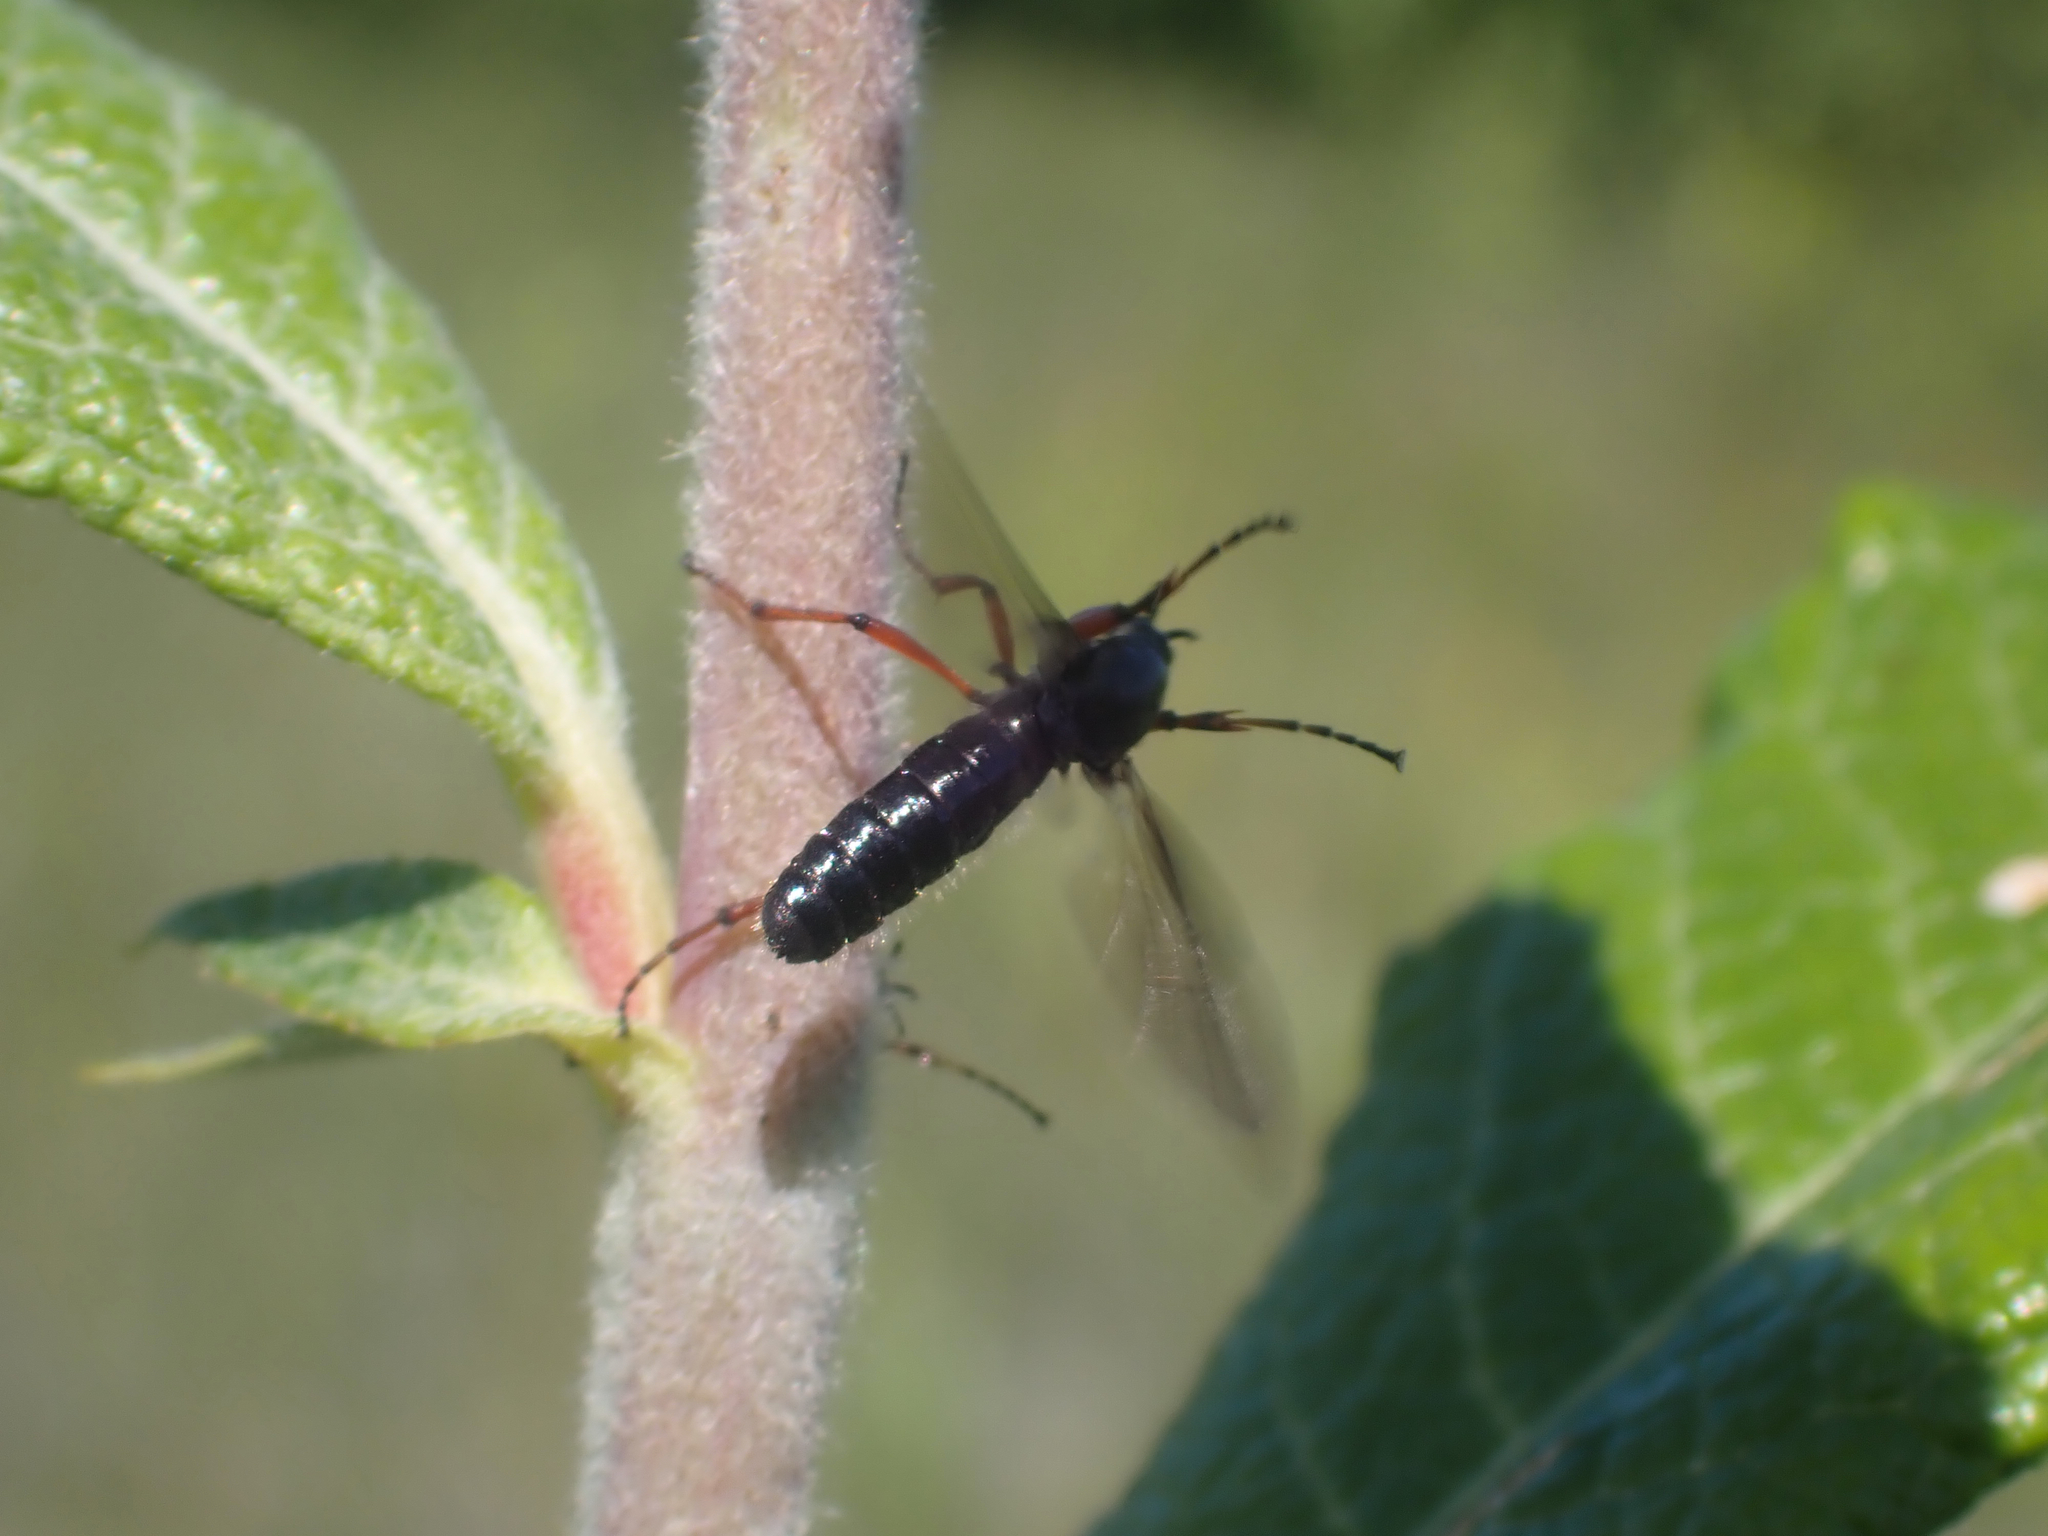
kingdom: Animalia
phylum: Arthropoda
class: Insecta
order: Diptera
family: Bibionidae
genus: Bibio
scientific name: Bibio
